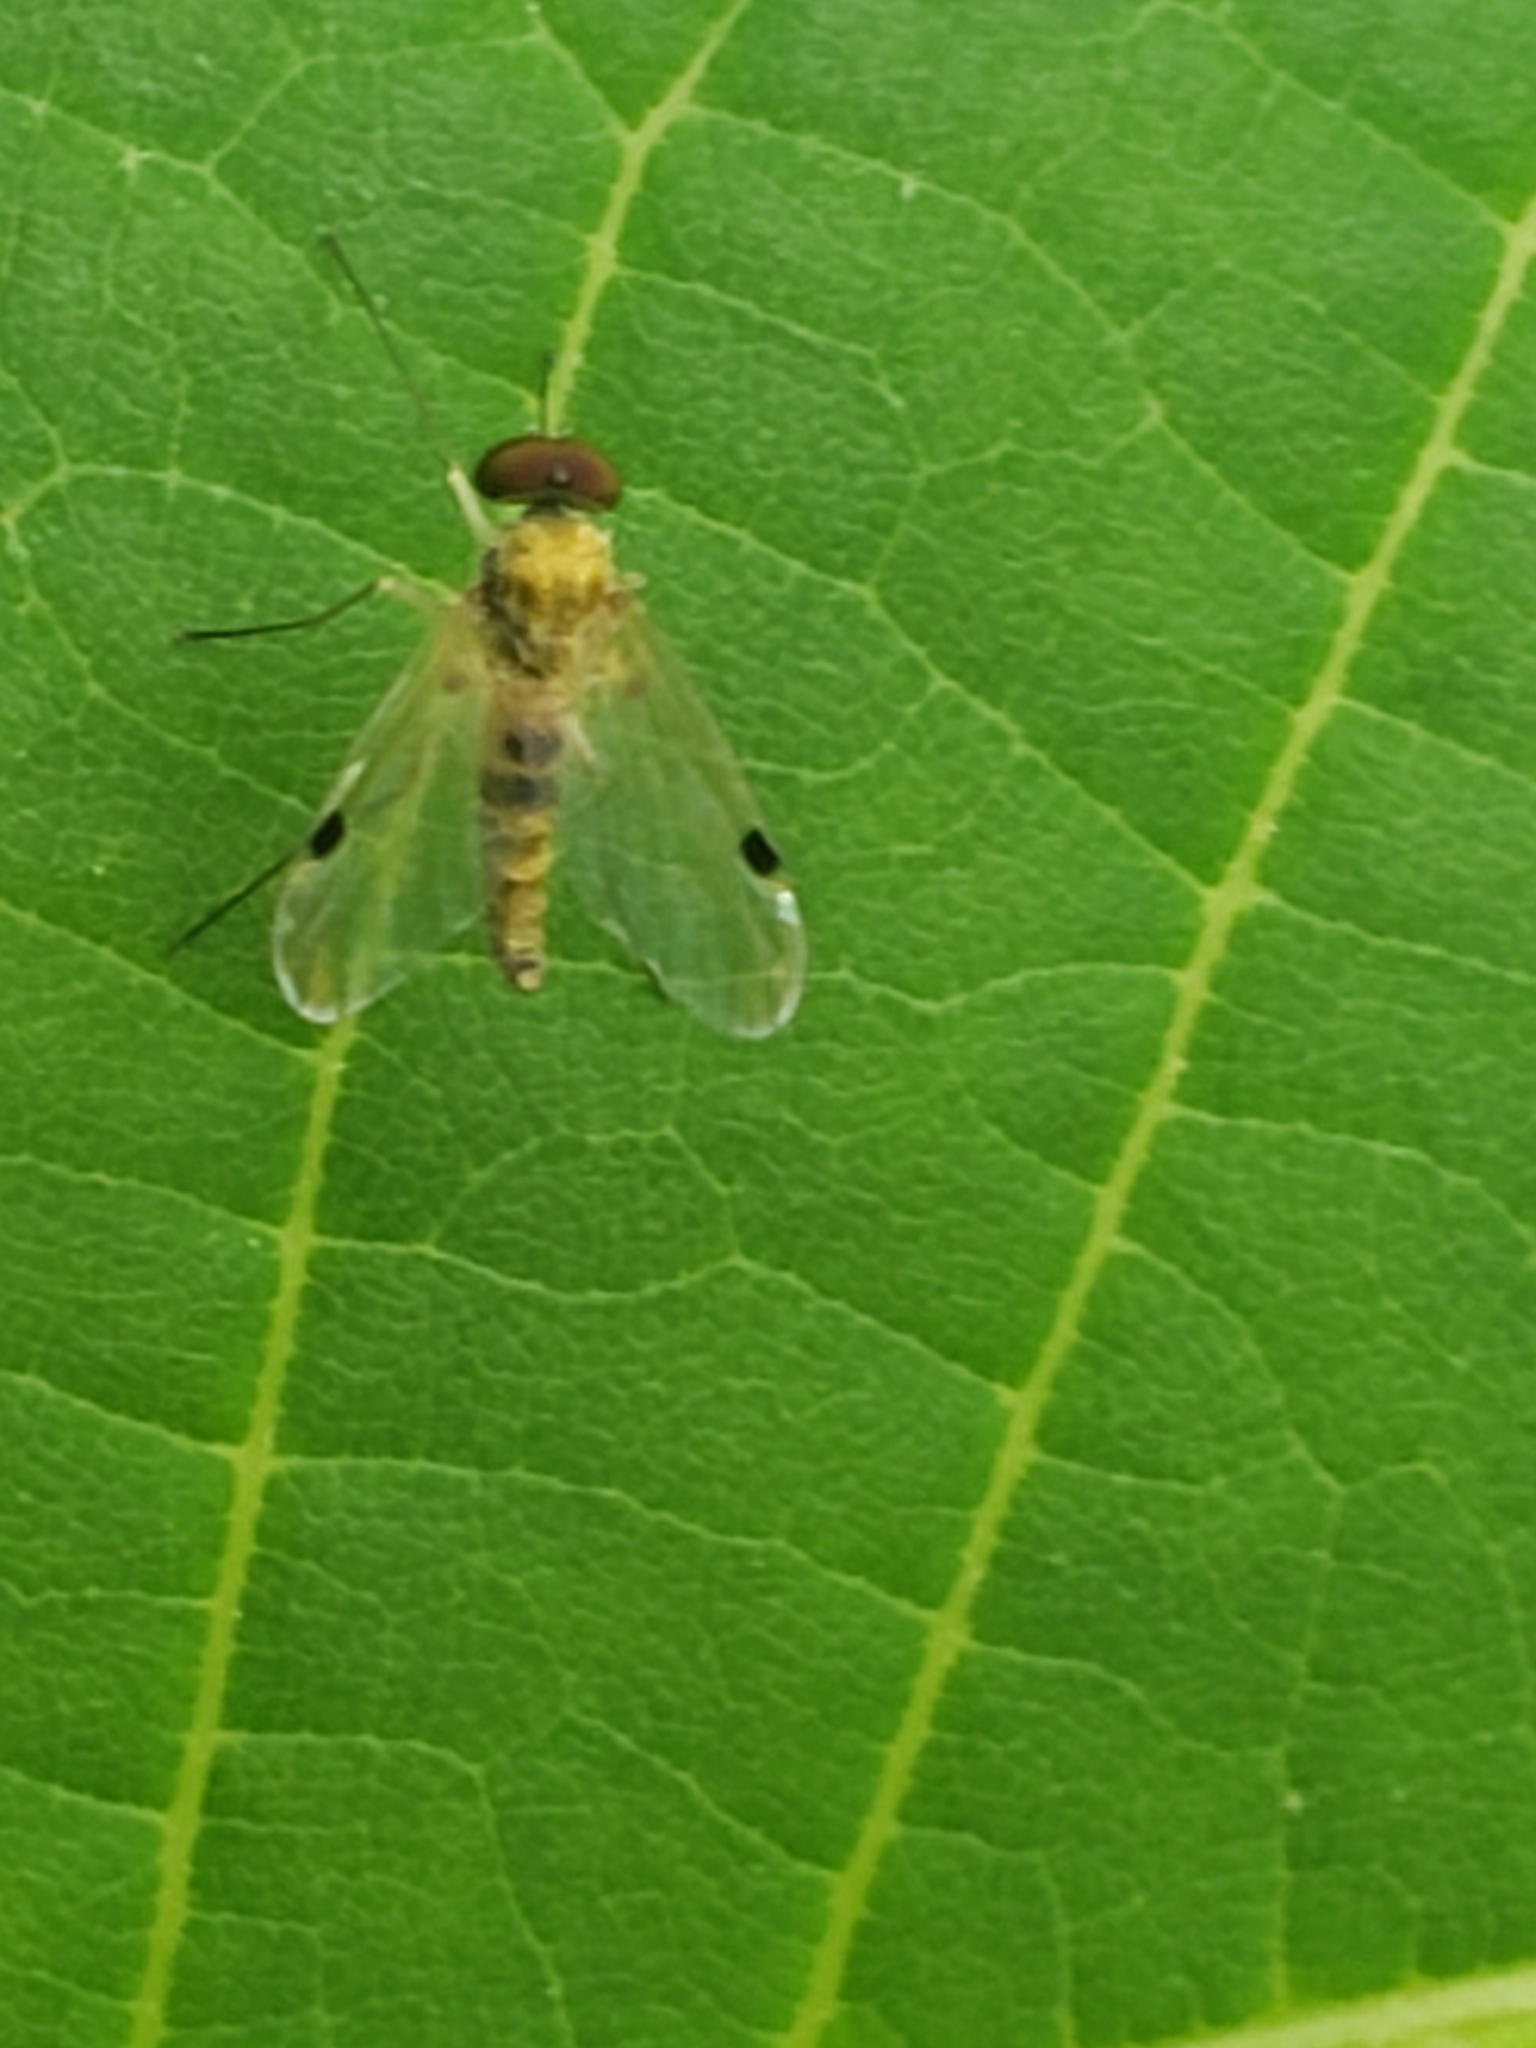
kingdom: Animalia
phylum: Arthropoda
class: Insecta
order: Diptera
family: Rhagionidae
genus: Chrysopilus
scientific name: Chrysopilus modestus
